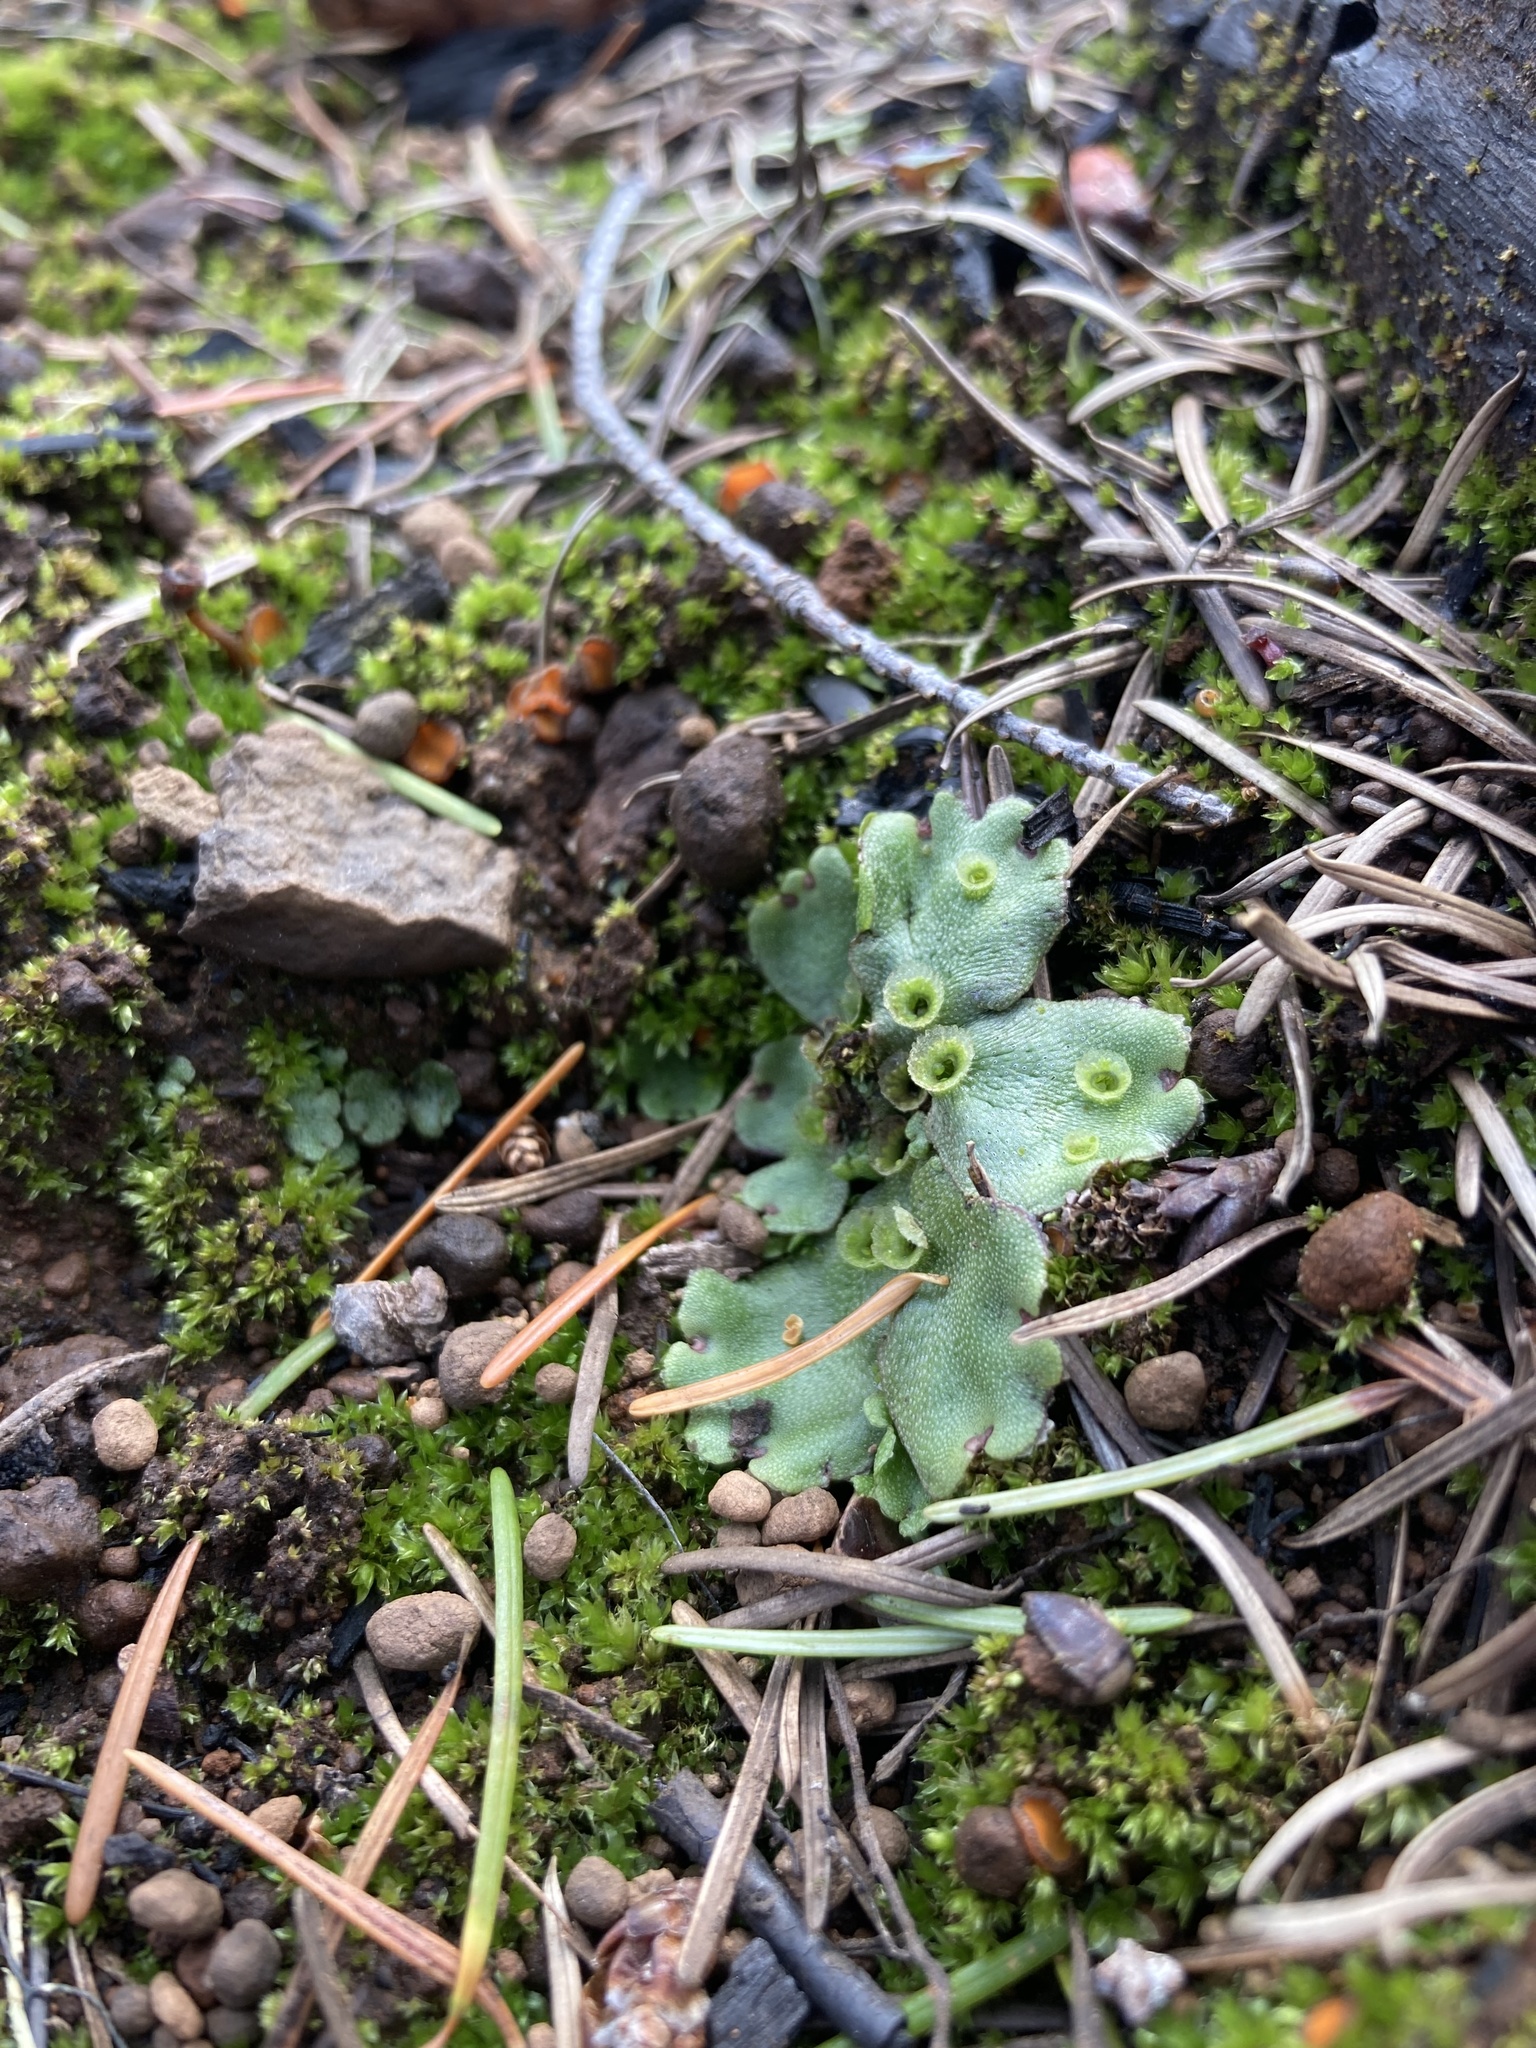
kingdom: Plantae
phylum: Marchantiophyta
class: Marchantiopsida
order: Marchantiales
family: Marchantiaceae
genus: Marchantia
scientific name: Marchantia polymorpha
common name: Common liverwort
